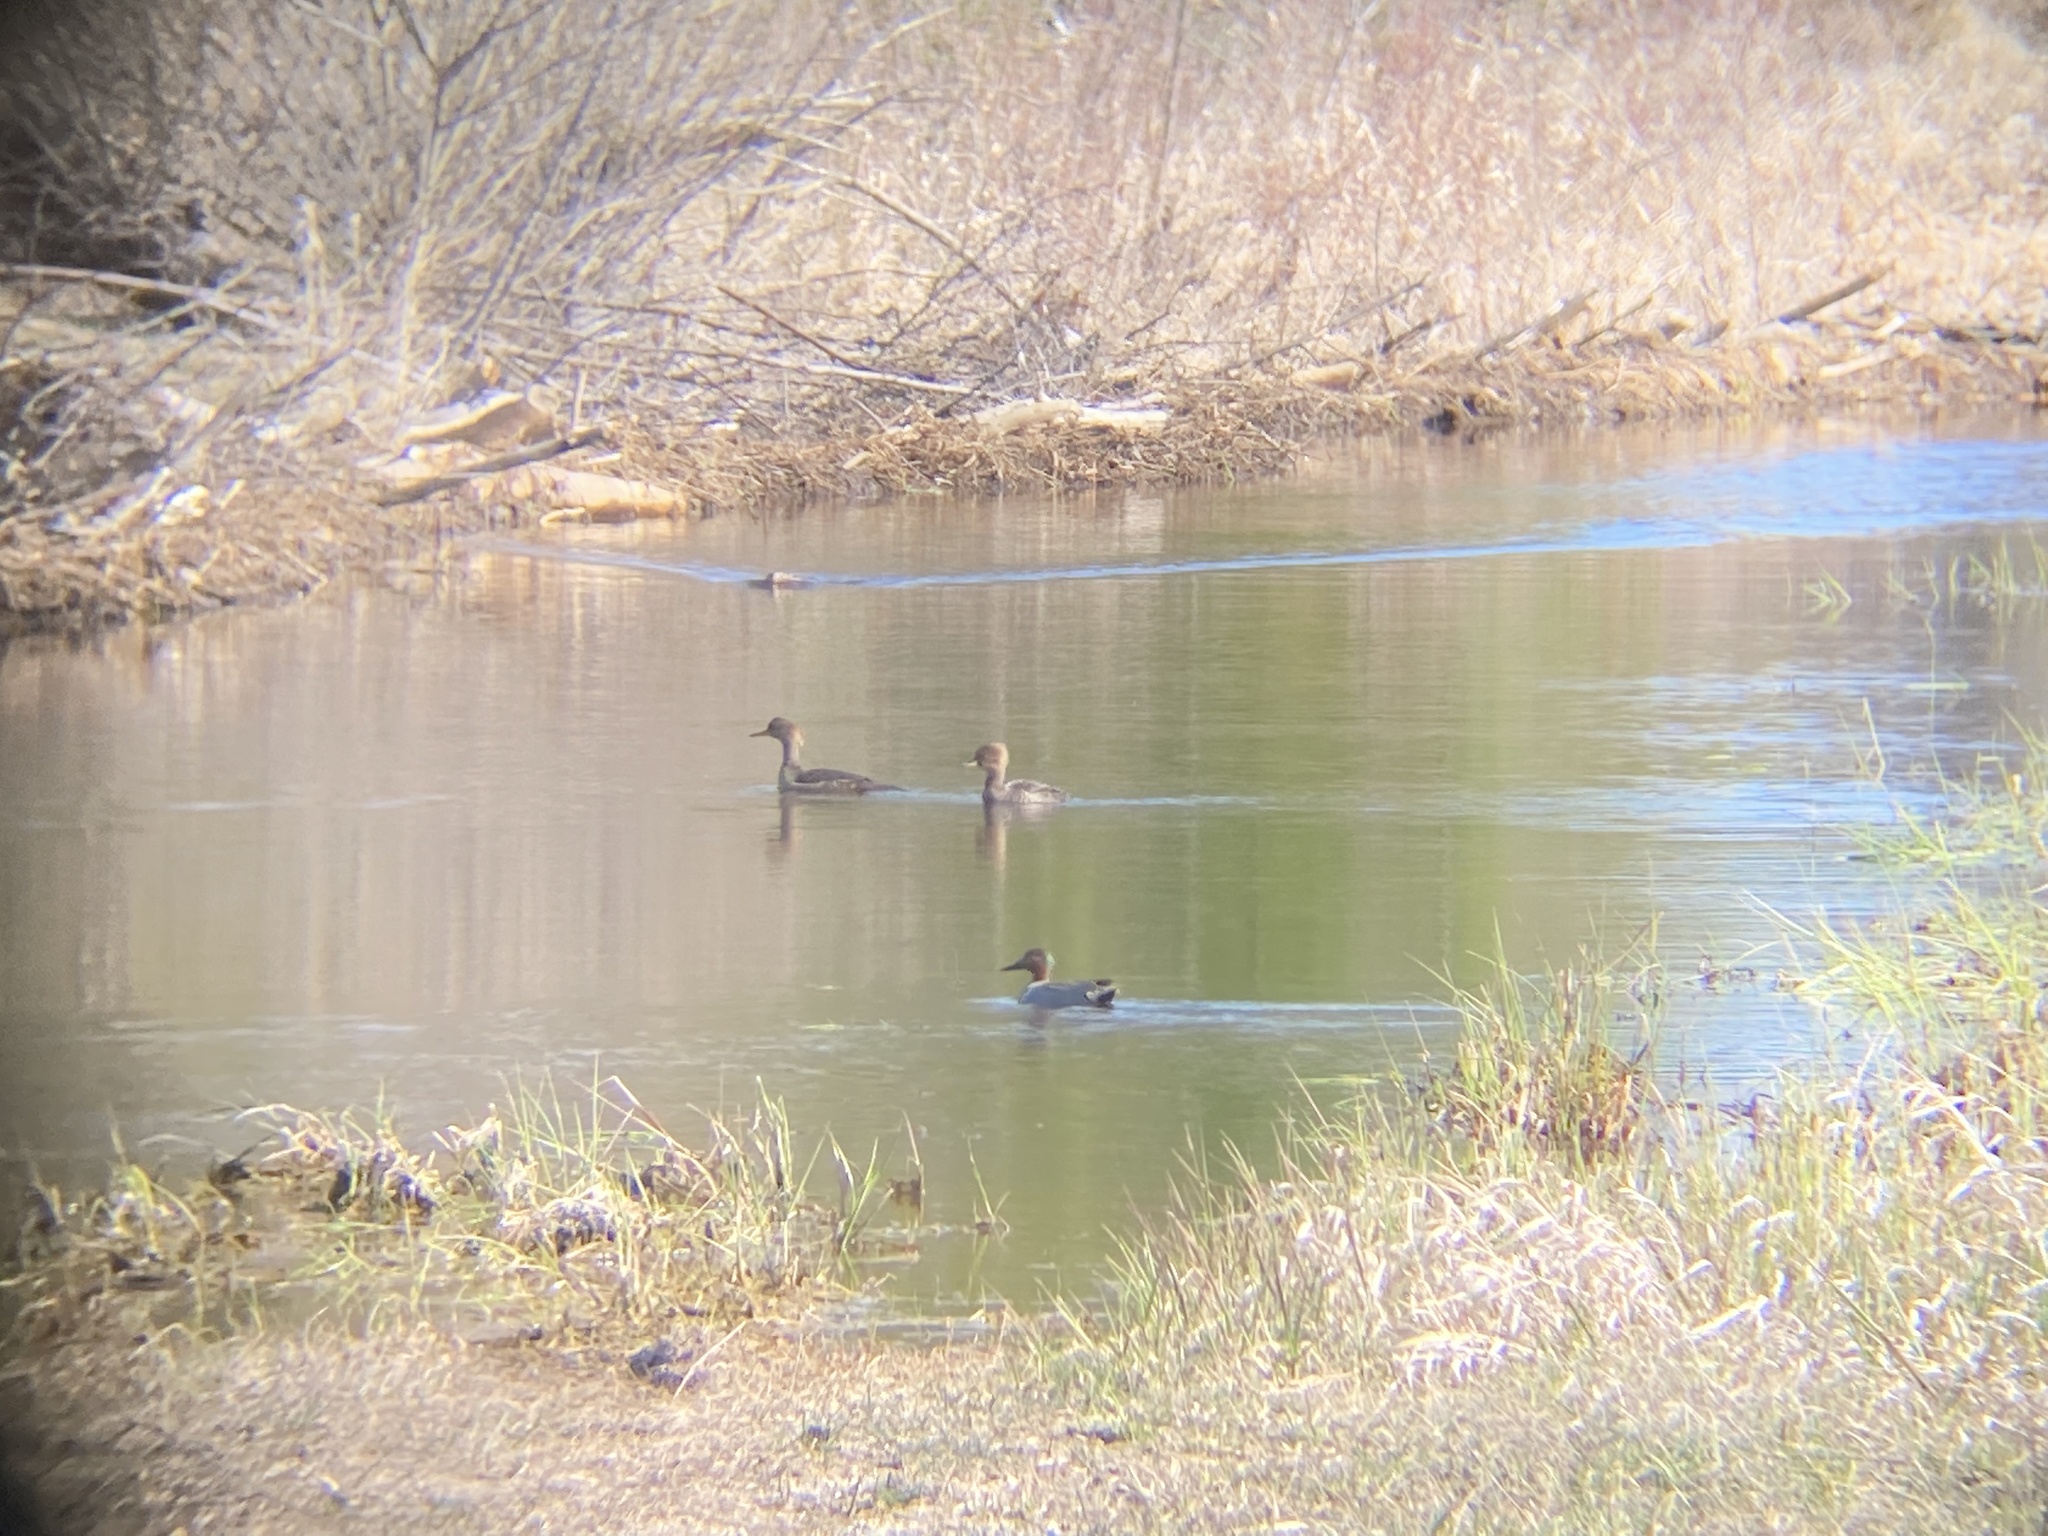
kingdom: Animalia
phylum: Chordata
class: Aves
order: Anseriformes
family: Anatidae
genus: Anas
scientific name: Anas crecca
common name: Eurasian teal
